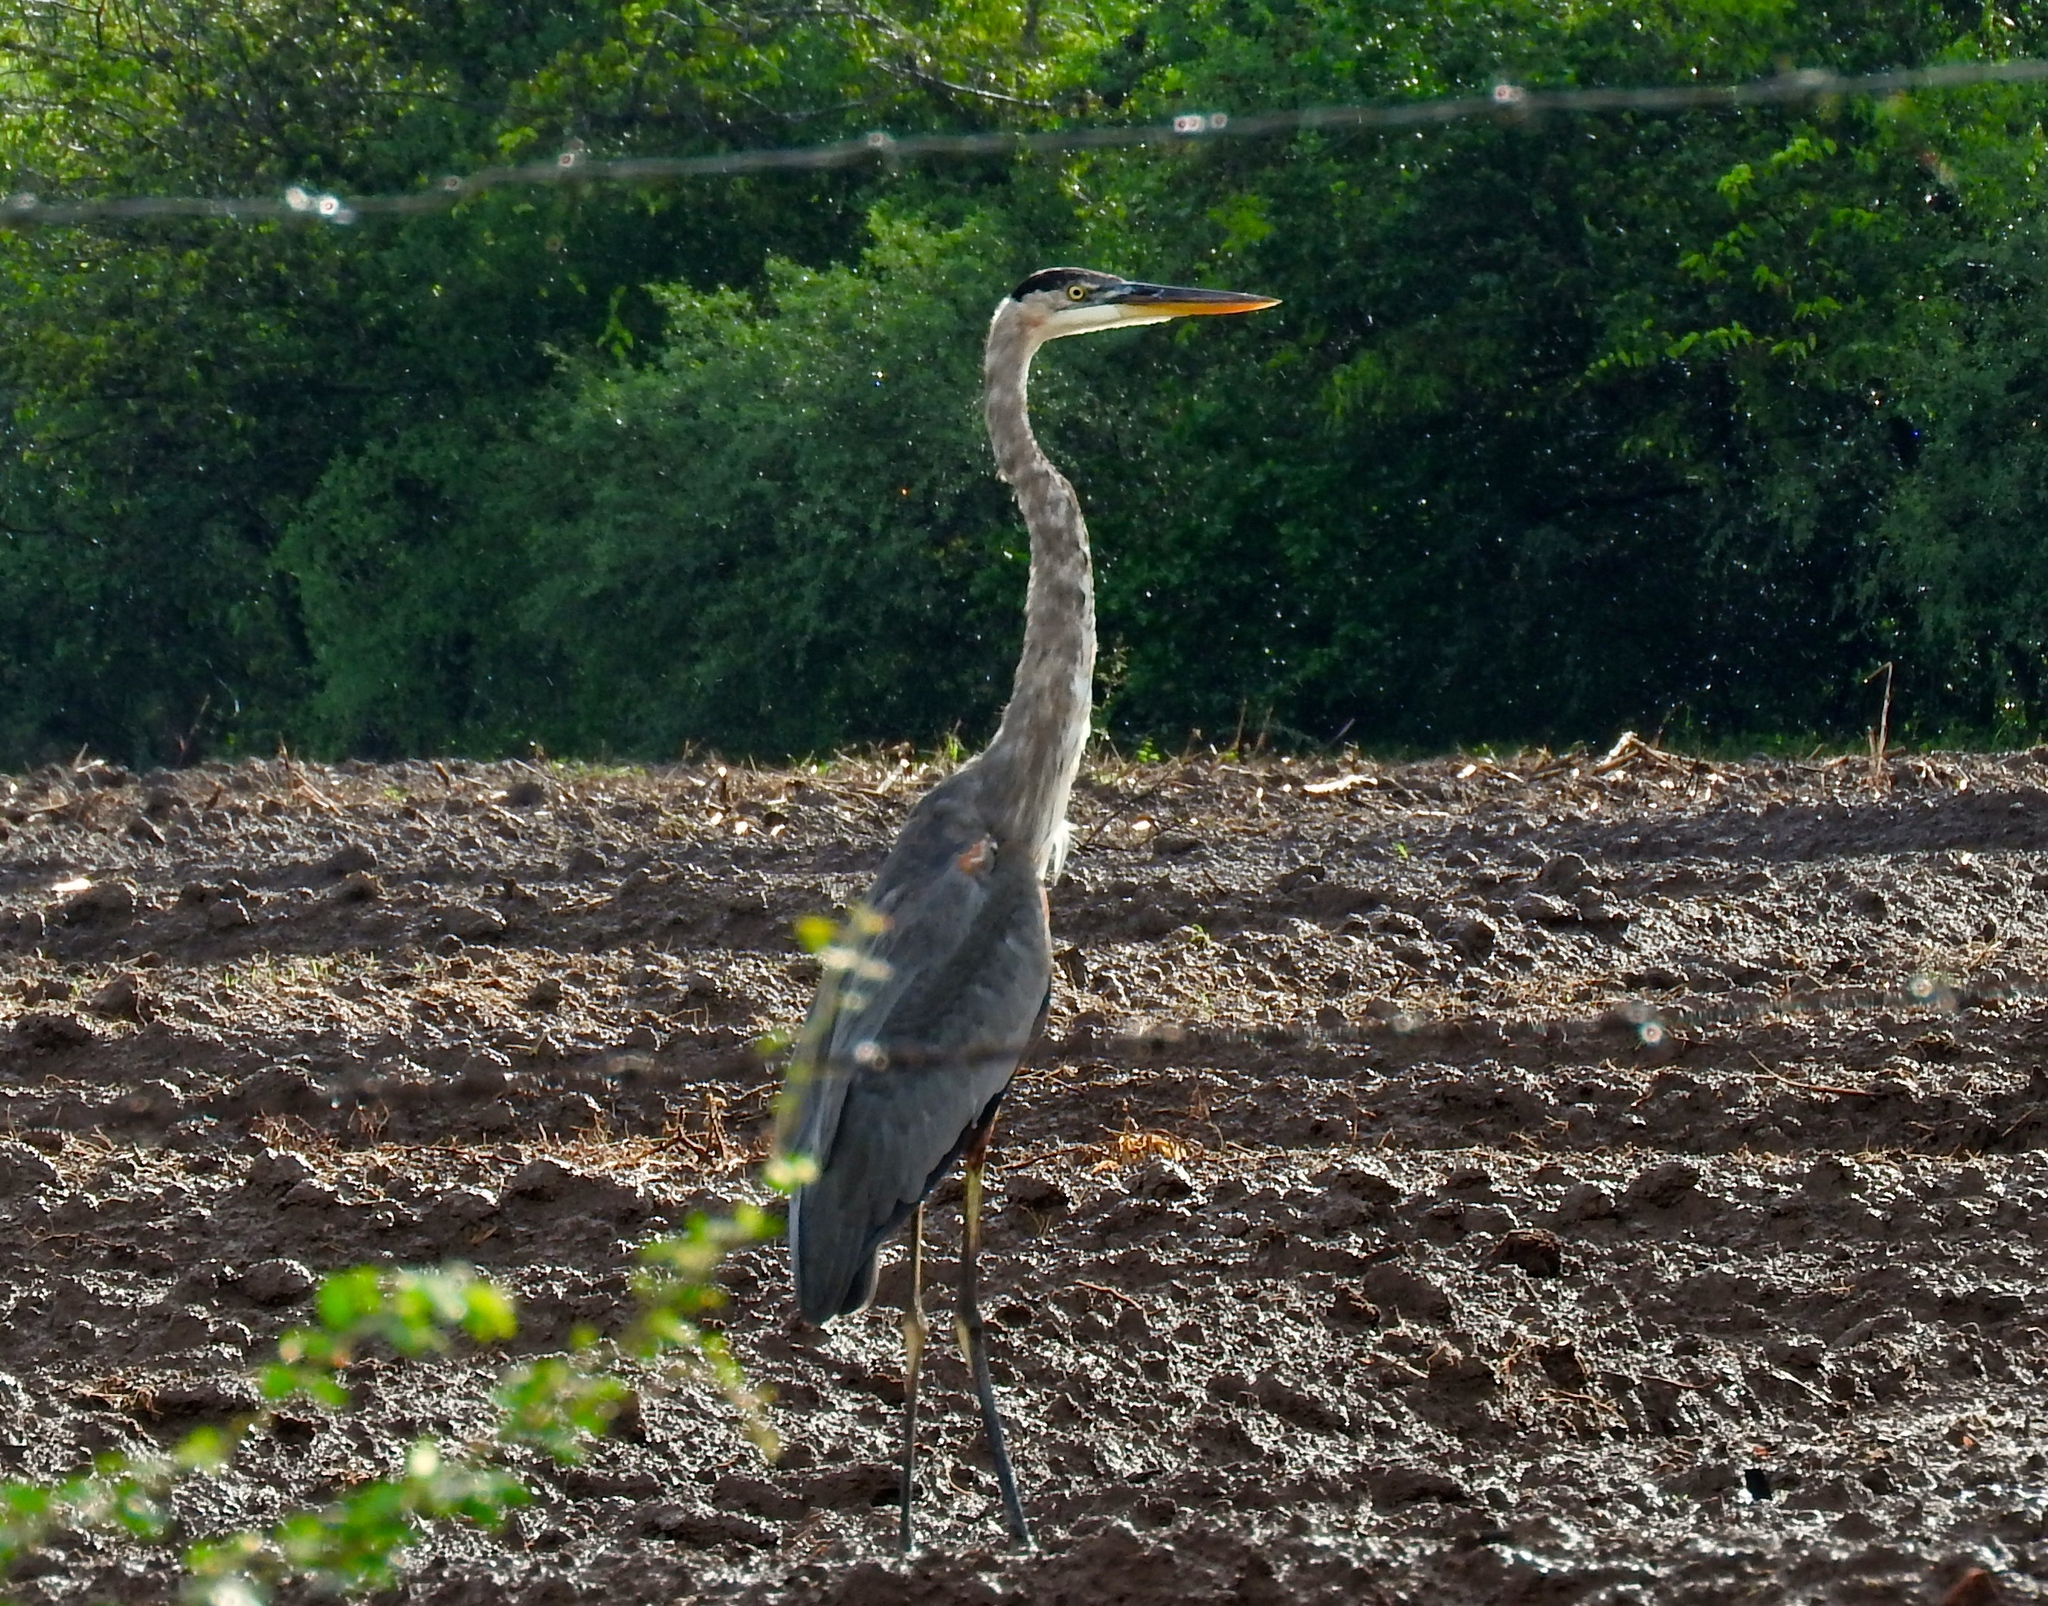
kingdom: Animalia
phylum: Chordata
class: Aves
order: Pelecaniformes
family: Ardeidae
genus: Ardea
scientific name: Ardea herodias
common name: Great blue heron
